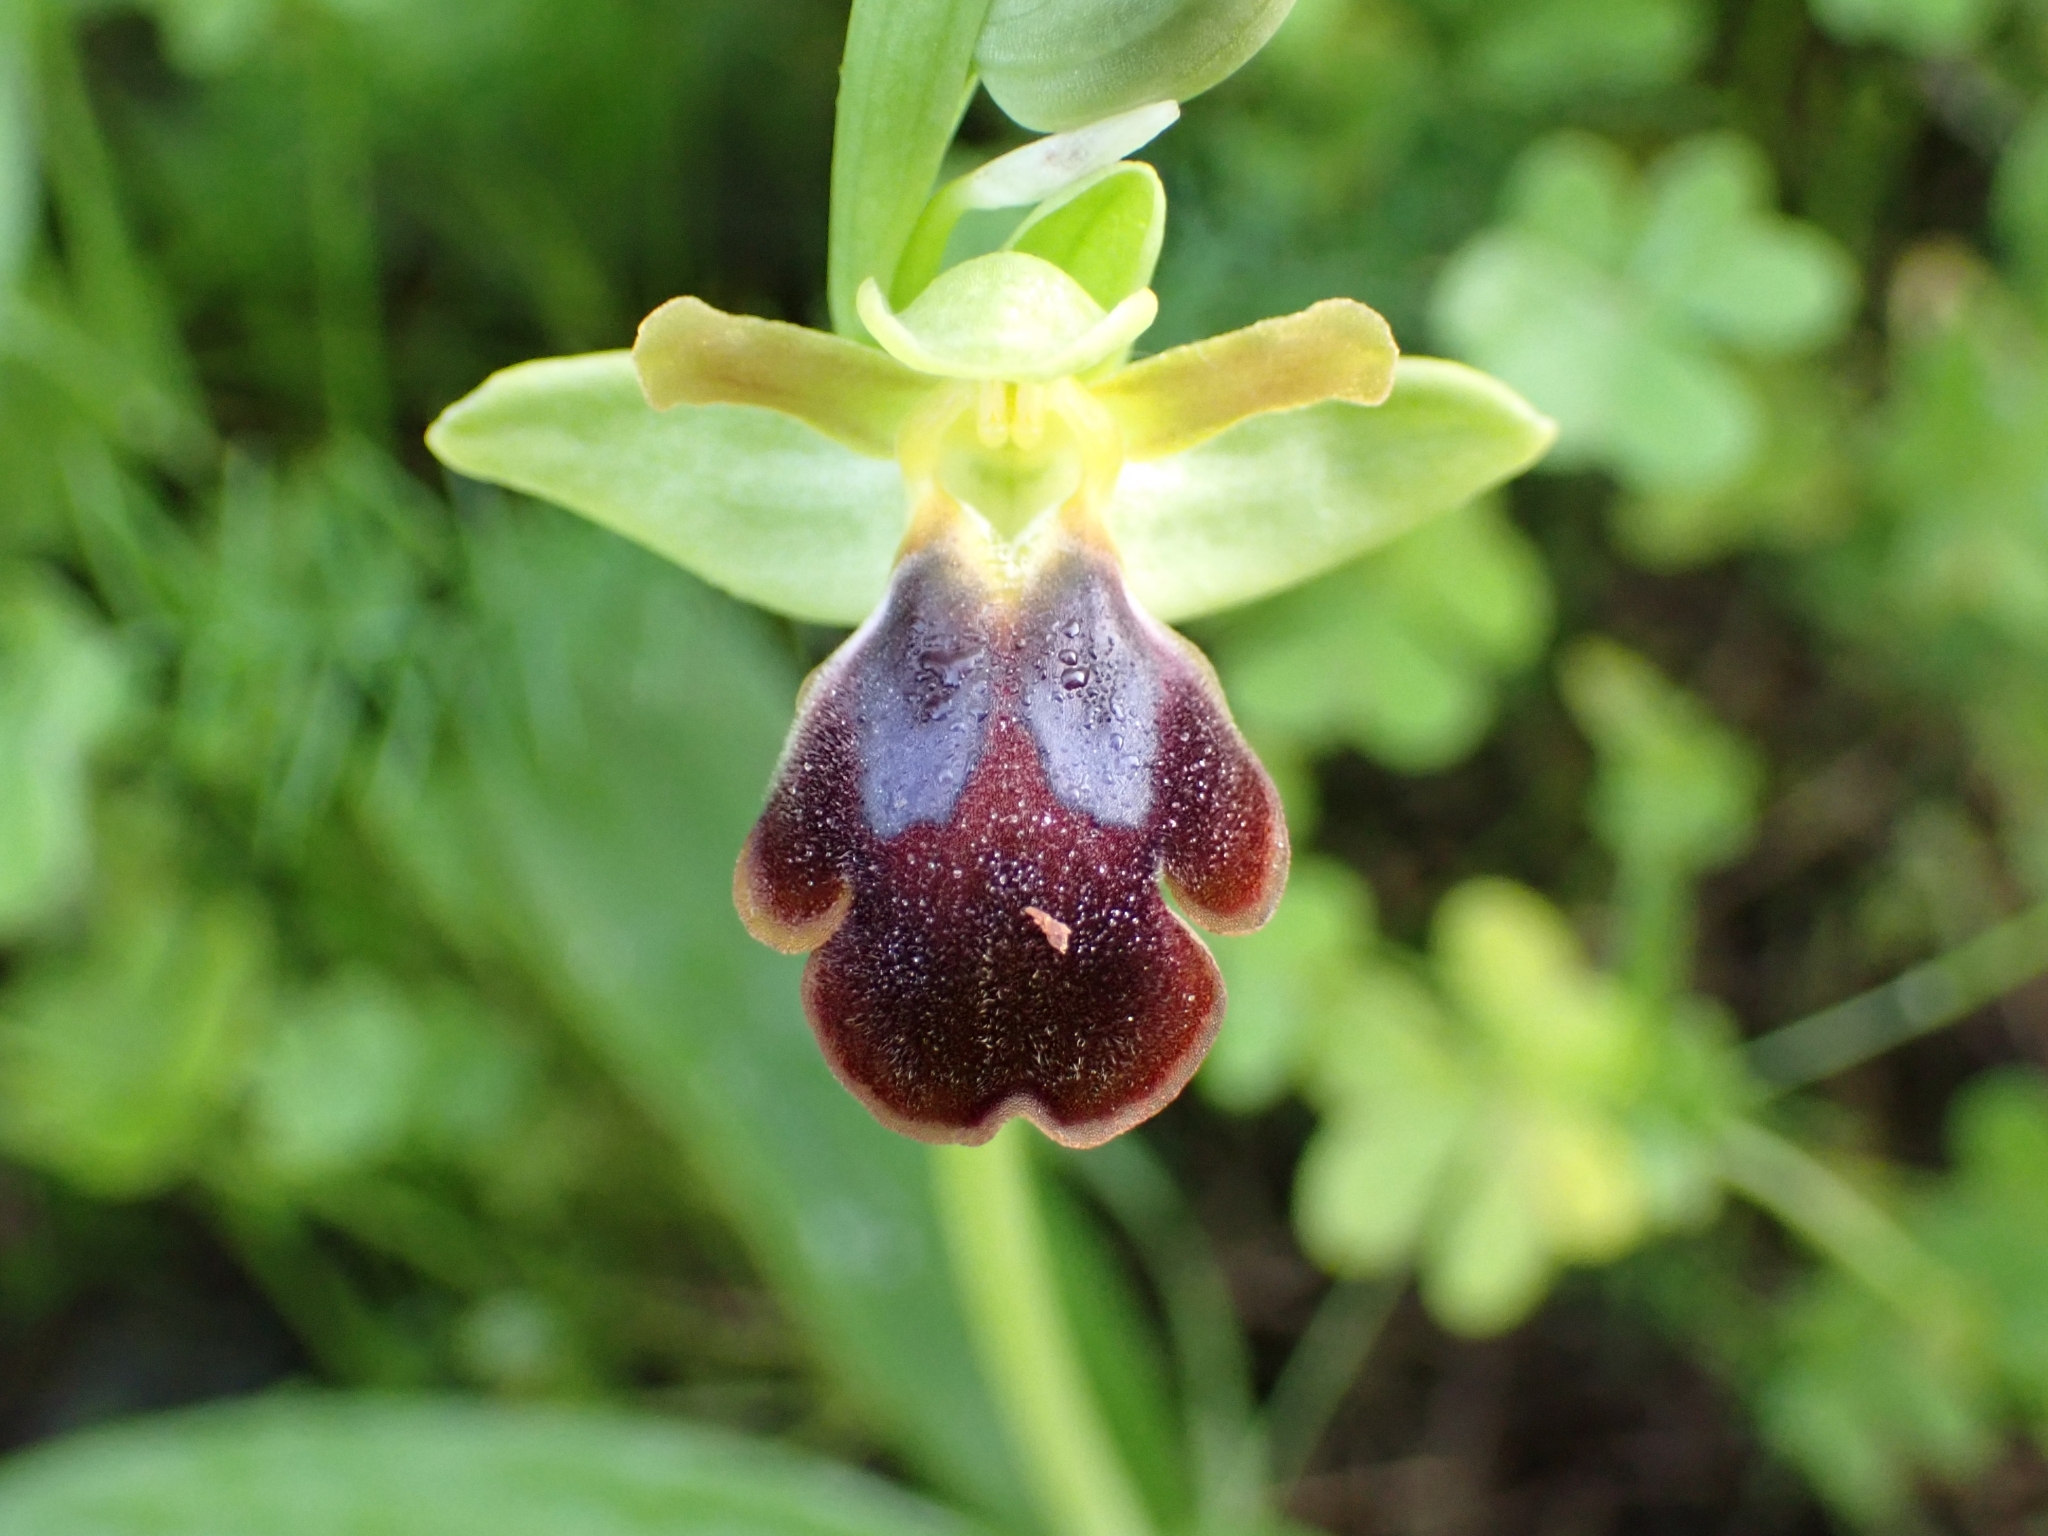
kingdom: Plantae
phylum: Tracheophyta
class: Liliopsida
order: Asparagales
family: Orchidaceae
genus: Ophrys
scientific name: Ophrys fusca
